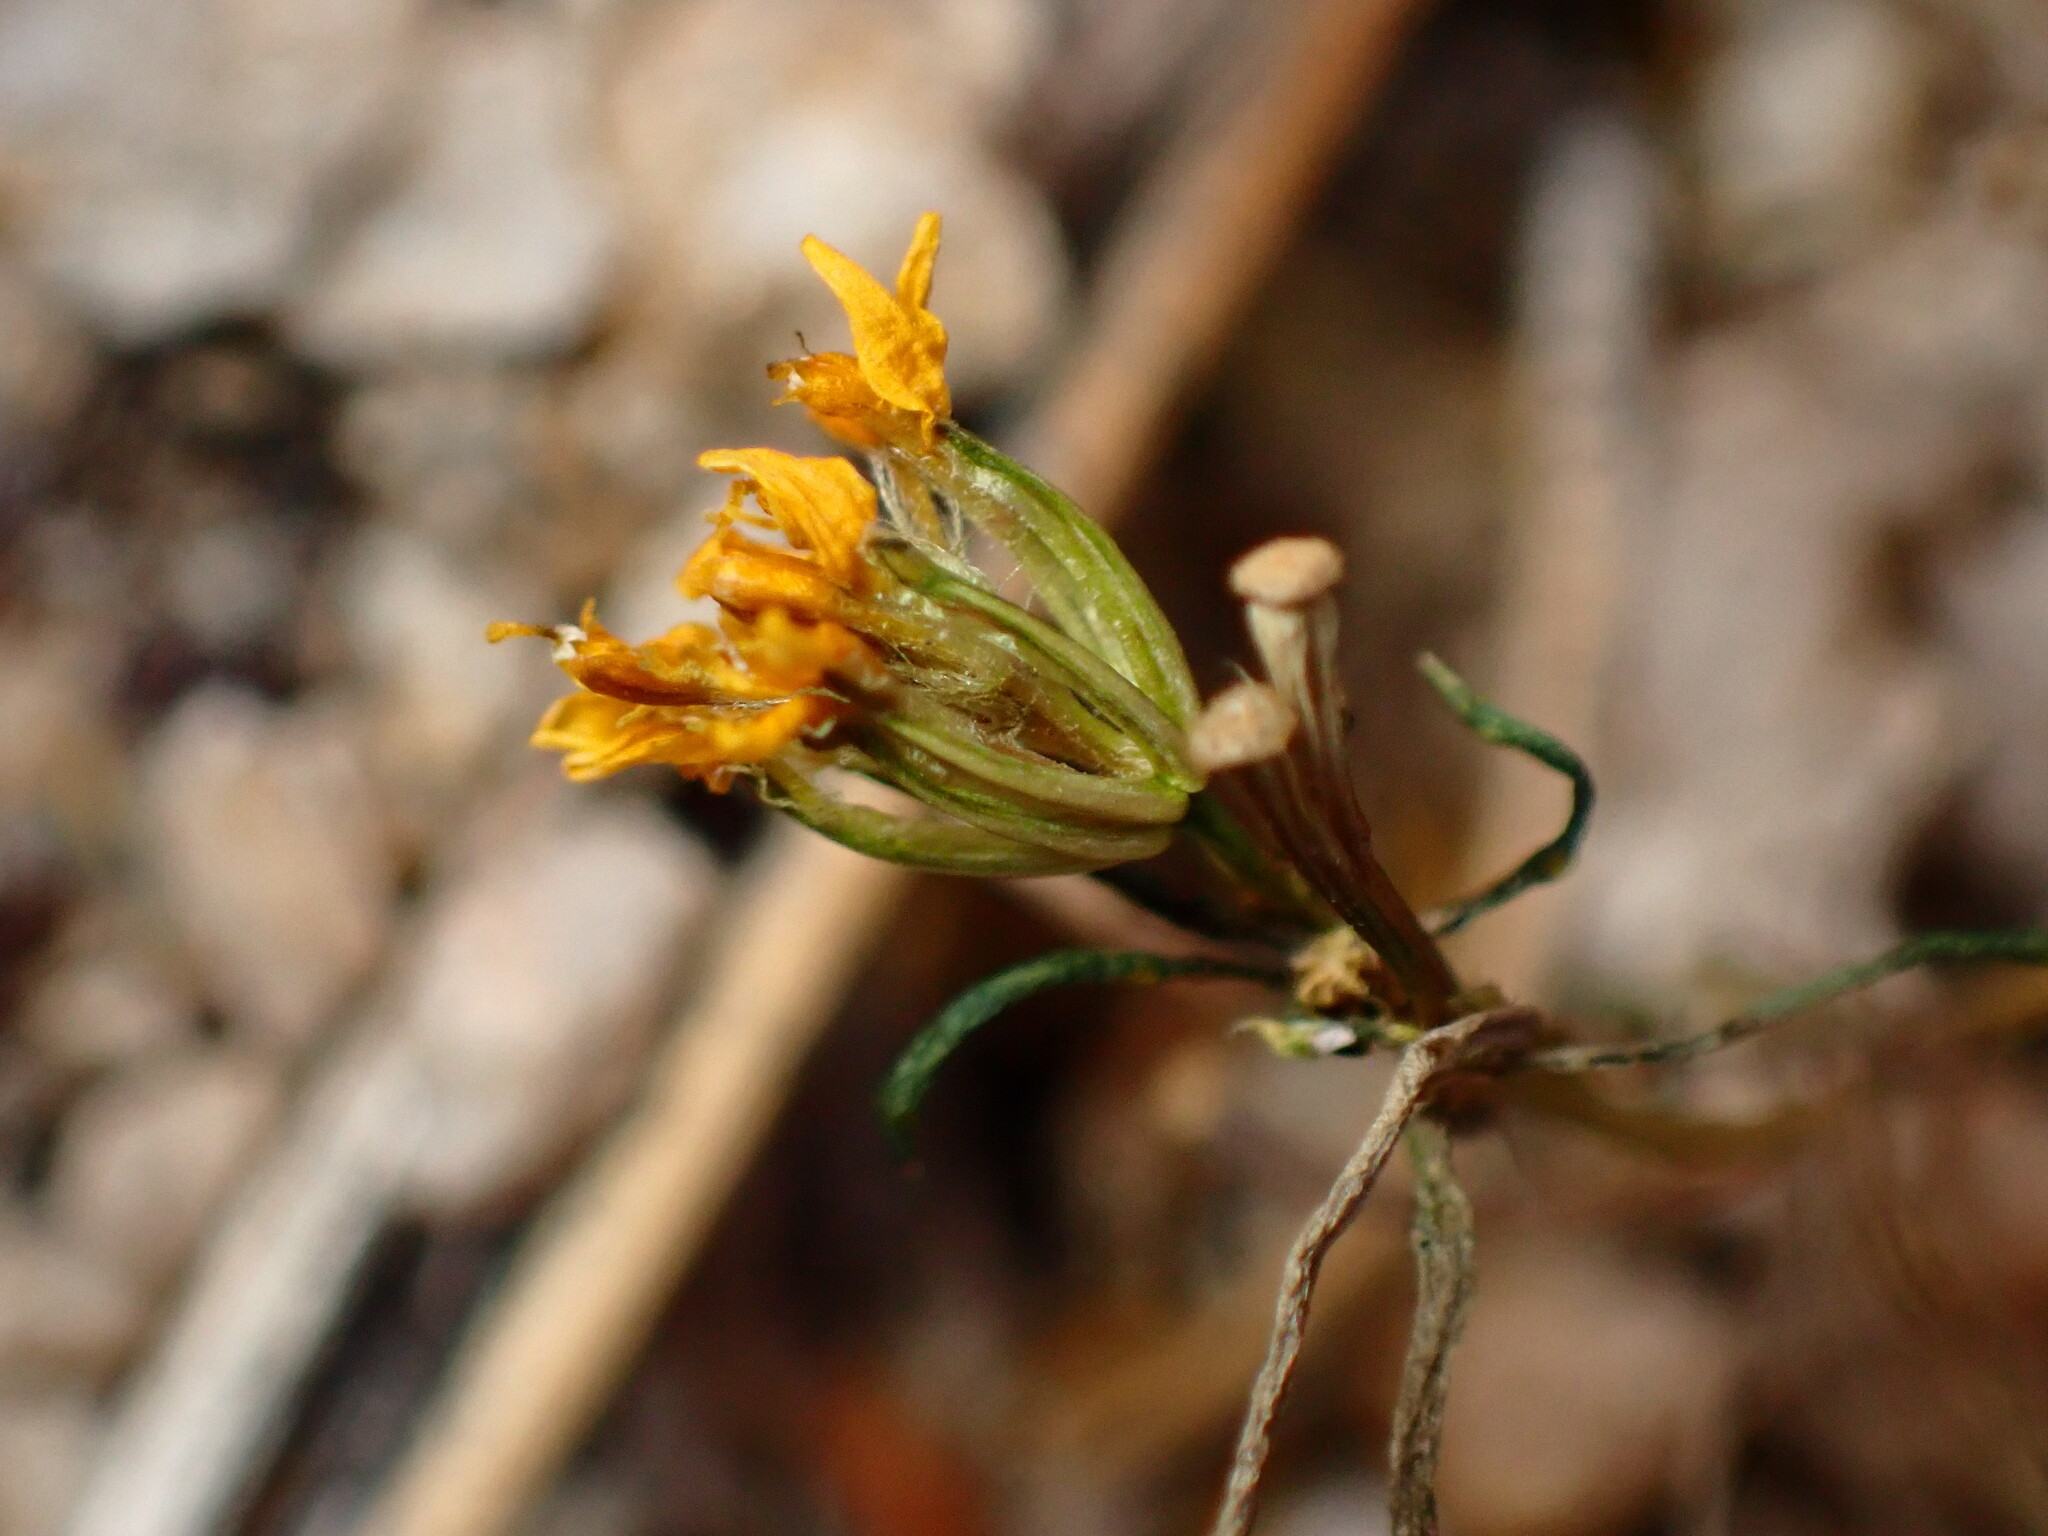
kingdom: Plantae
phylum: Tracheophyta
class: Magnoliopsida
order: Asterales
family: Asteraceae
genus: Pectis
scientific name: Pectis papposa
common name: Many-bristle chinchweed
